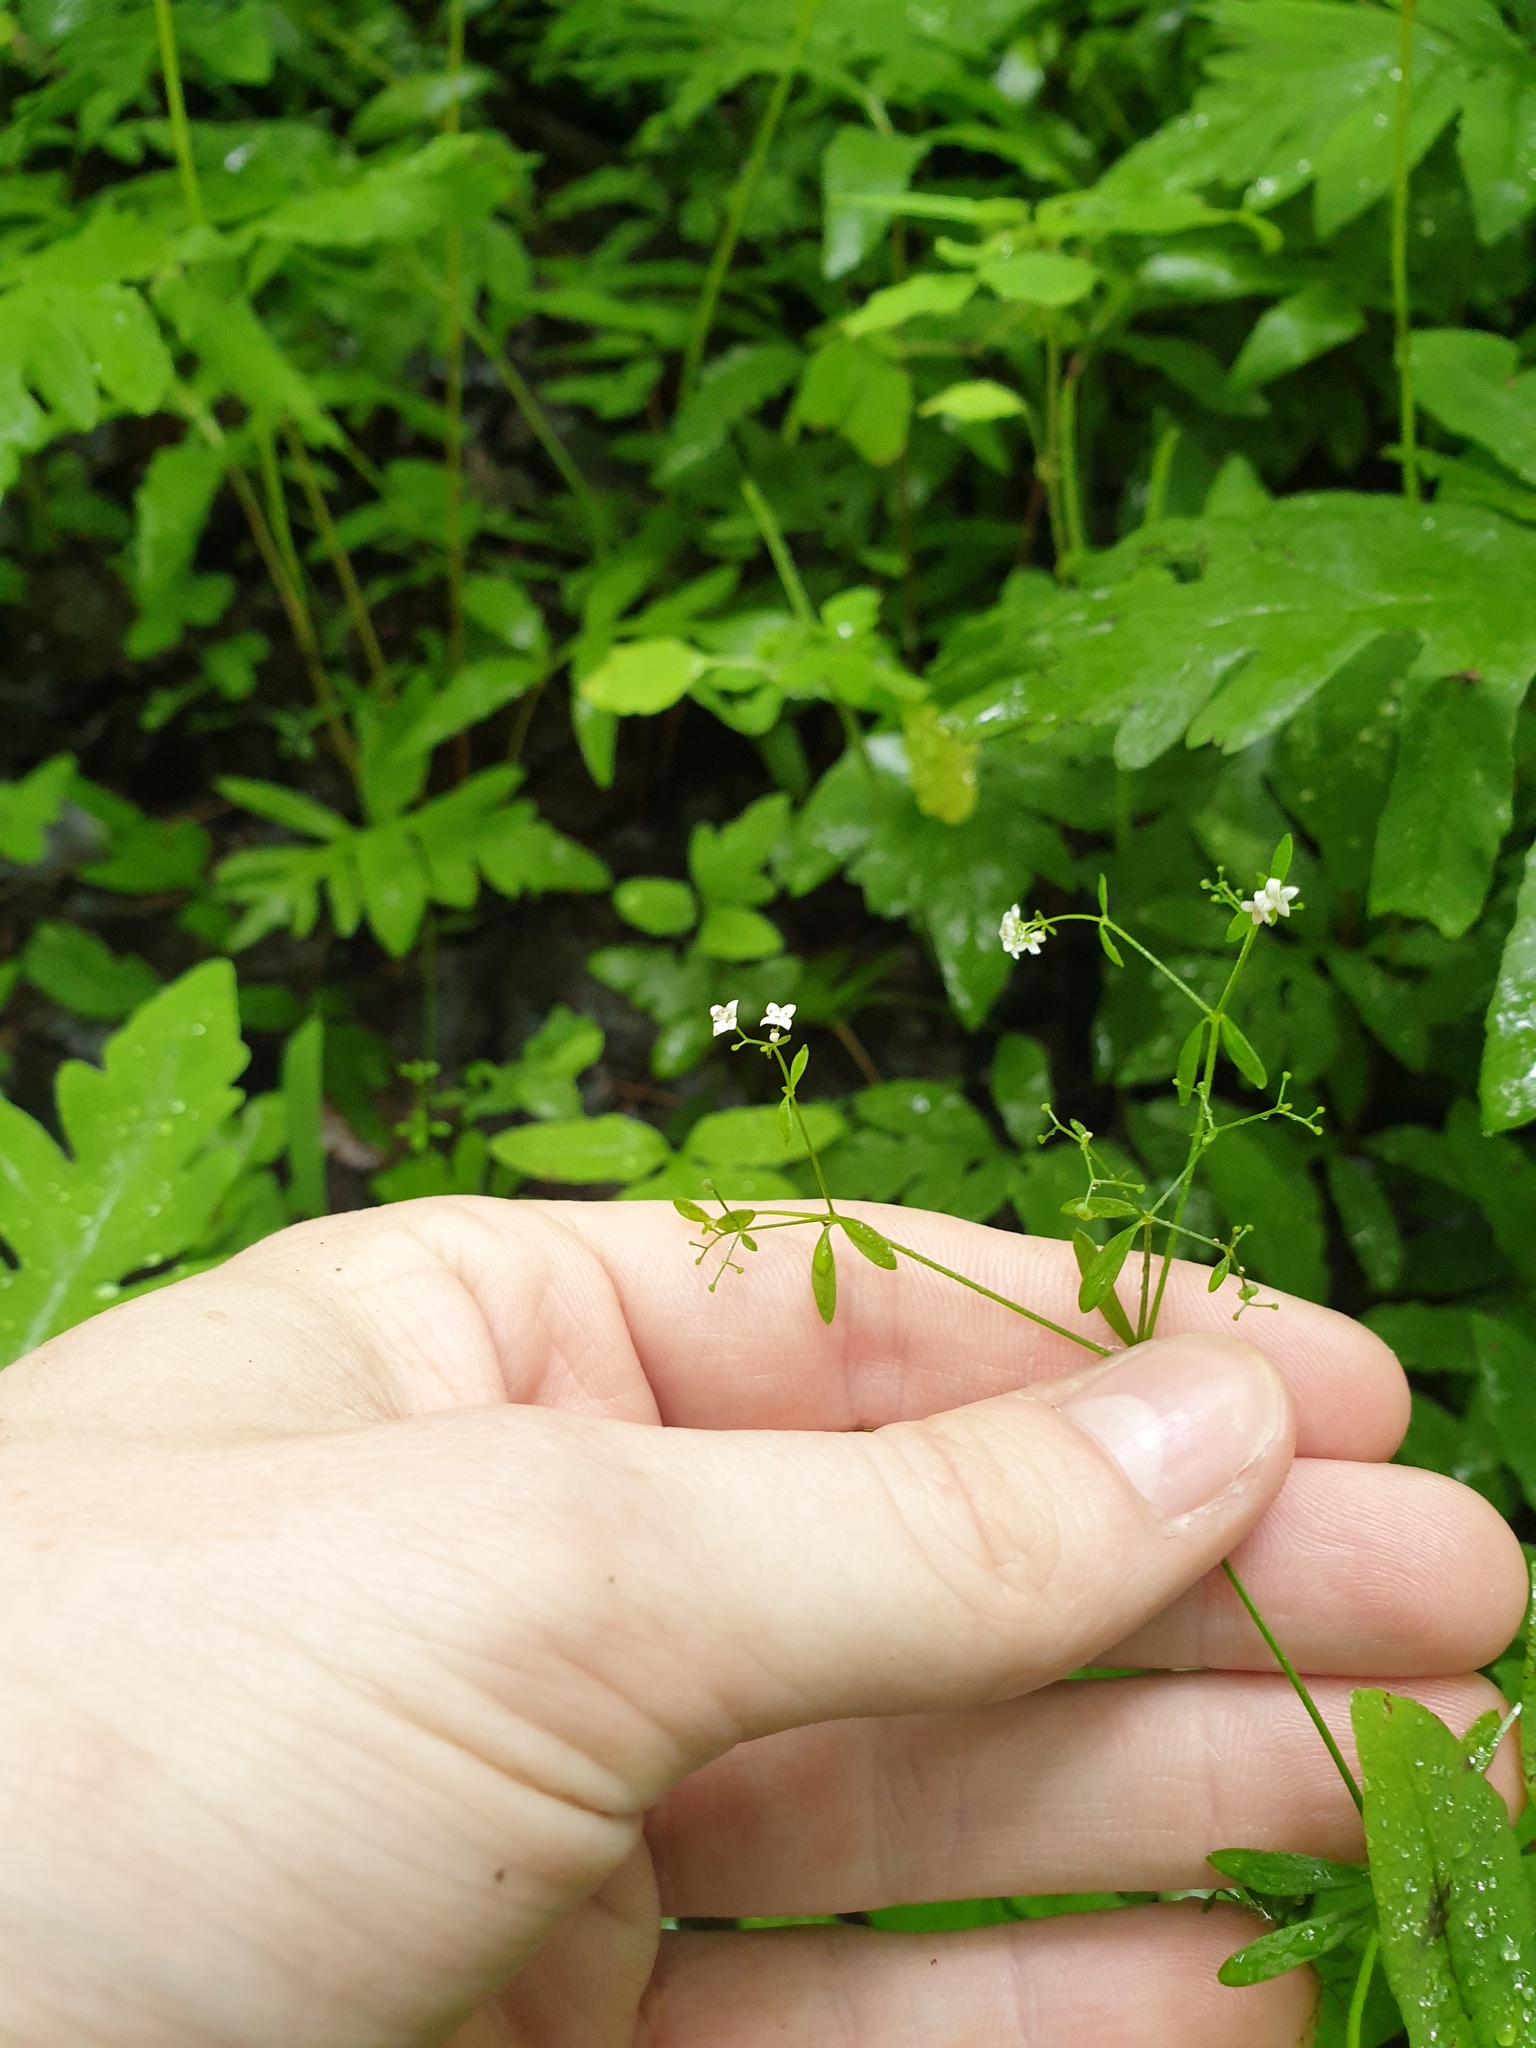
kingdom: Plantae
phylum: Tracheophyta
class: Magnoliopsida
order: Gentianales
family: Rubiaceae
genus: Galium
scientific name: Galium palustre
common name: Common marsh-bedstraw
